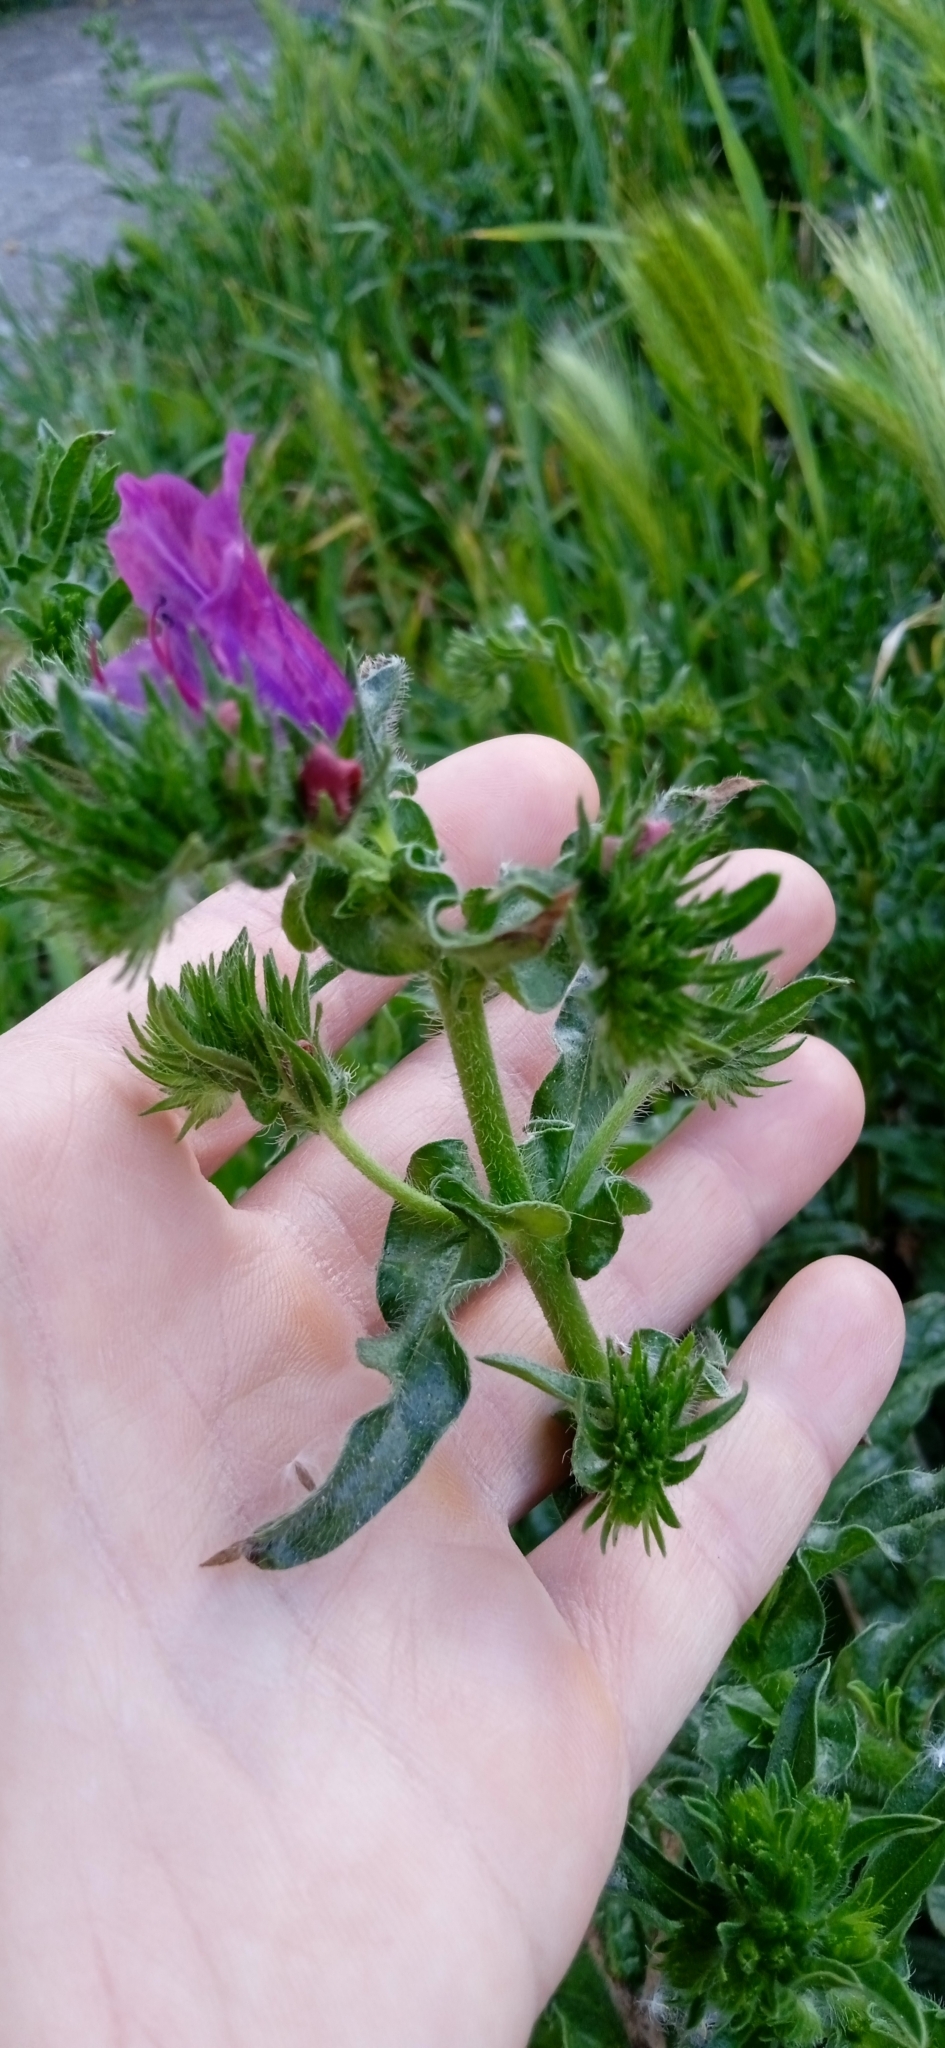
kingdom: Plantae
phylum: Tracheophyta
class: Magnoliopsida
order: Boraginales
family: Boraginaceae
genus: Echium
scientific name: Echium plantagineum
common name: Purple viper's-bugloss
